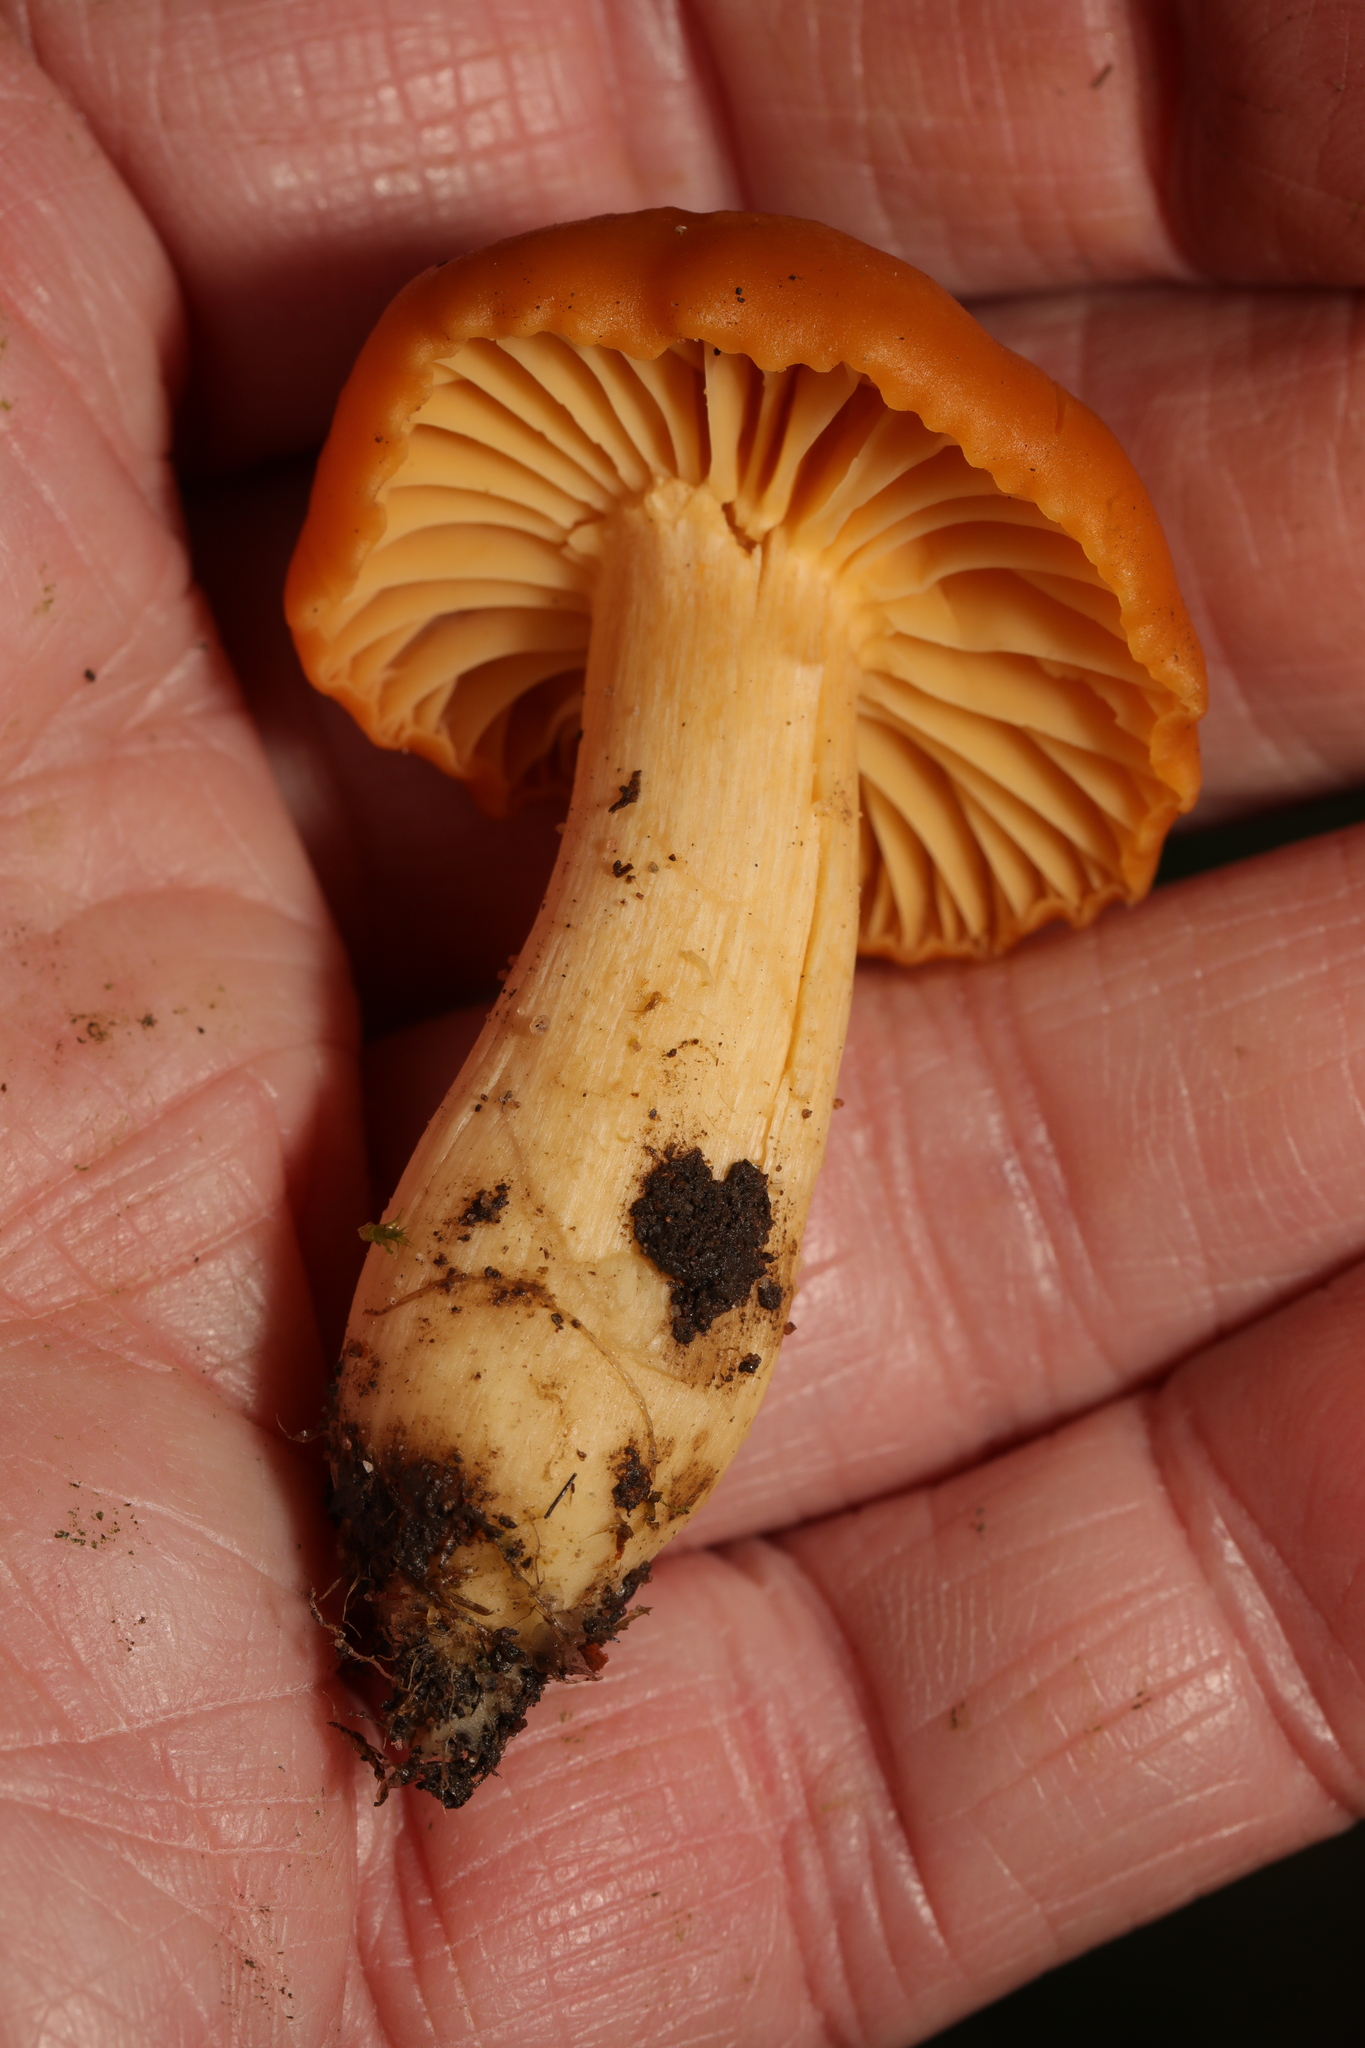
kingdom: Fungi
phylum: Basidiomycota
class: Agaricomycetes
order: Agaricales
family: Hygrophoraceae
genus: Cuphophyllus
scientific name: Cuphophyllus pratensis
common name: Meadow waxcap
